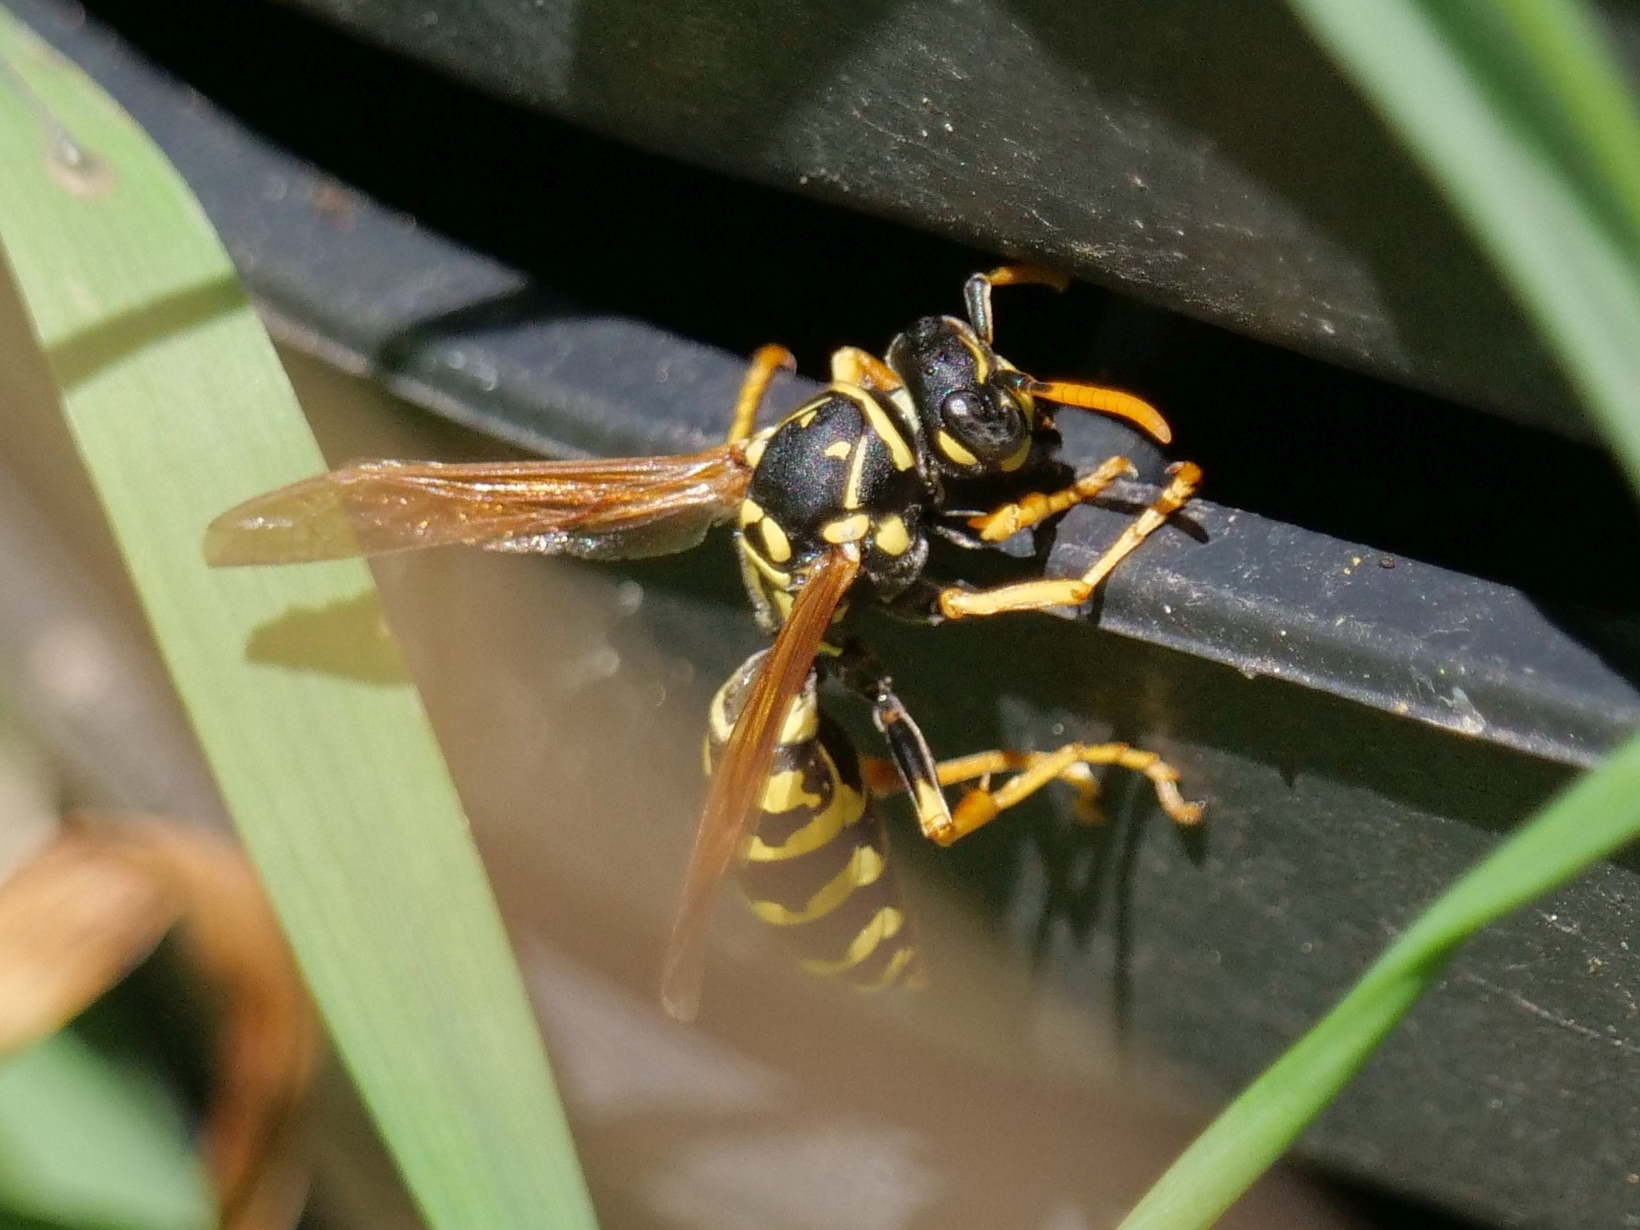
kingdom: Animalia
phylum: Arthropoda
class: Insecta
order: Hymenoptera
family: Eumenidae
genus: Polistes
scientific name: Polistes dominula
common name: Paper wasp
